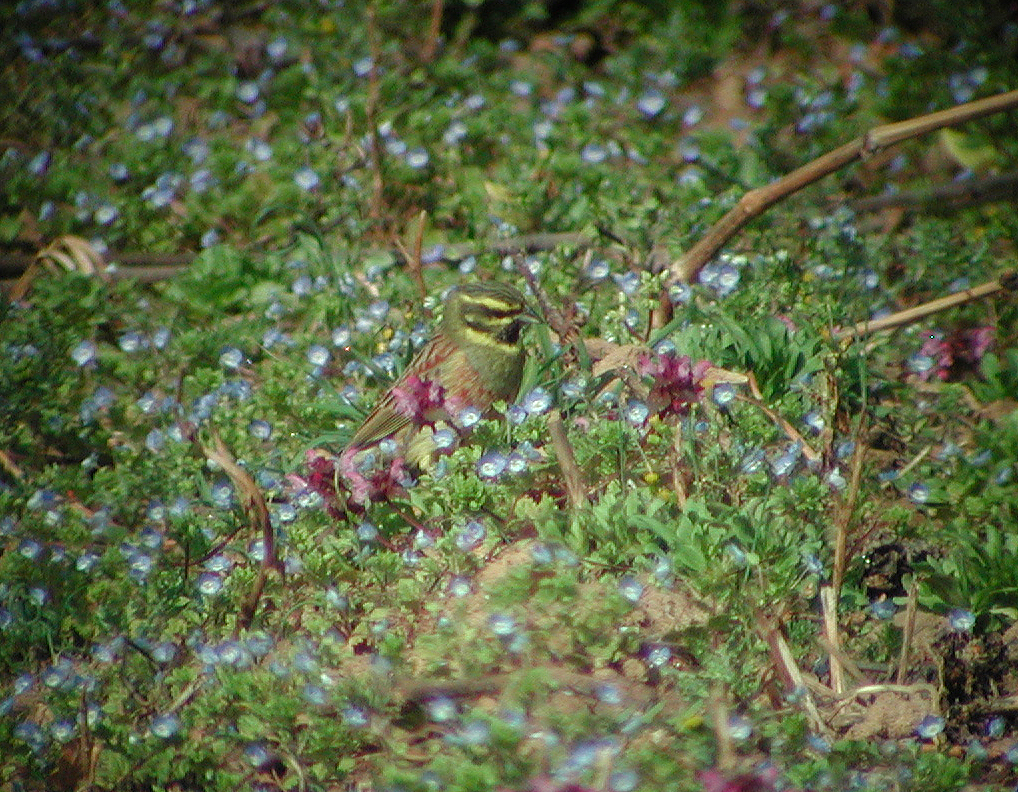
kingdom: Animalia
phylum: Chordata
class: Aves
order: Passeriformes
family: Emberizidae
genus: Emberiza
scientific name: Emberiza cirlus
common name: Cirl bunting
